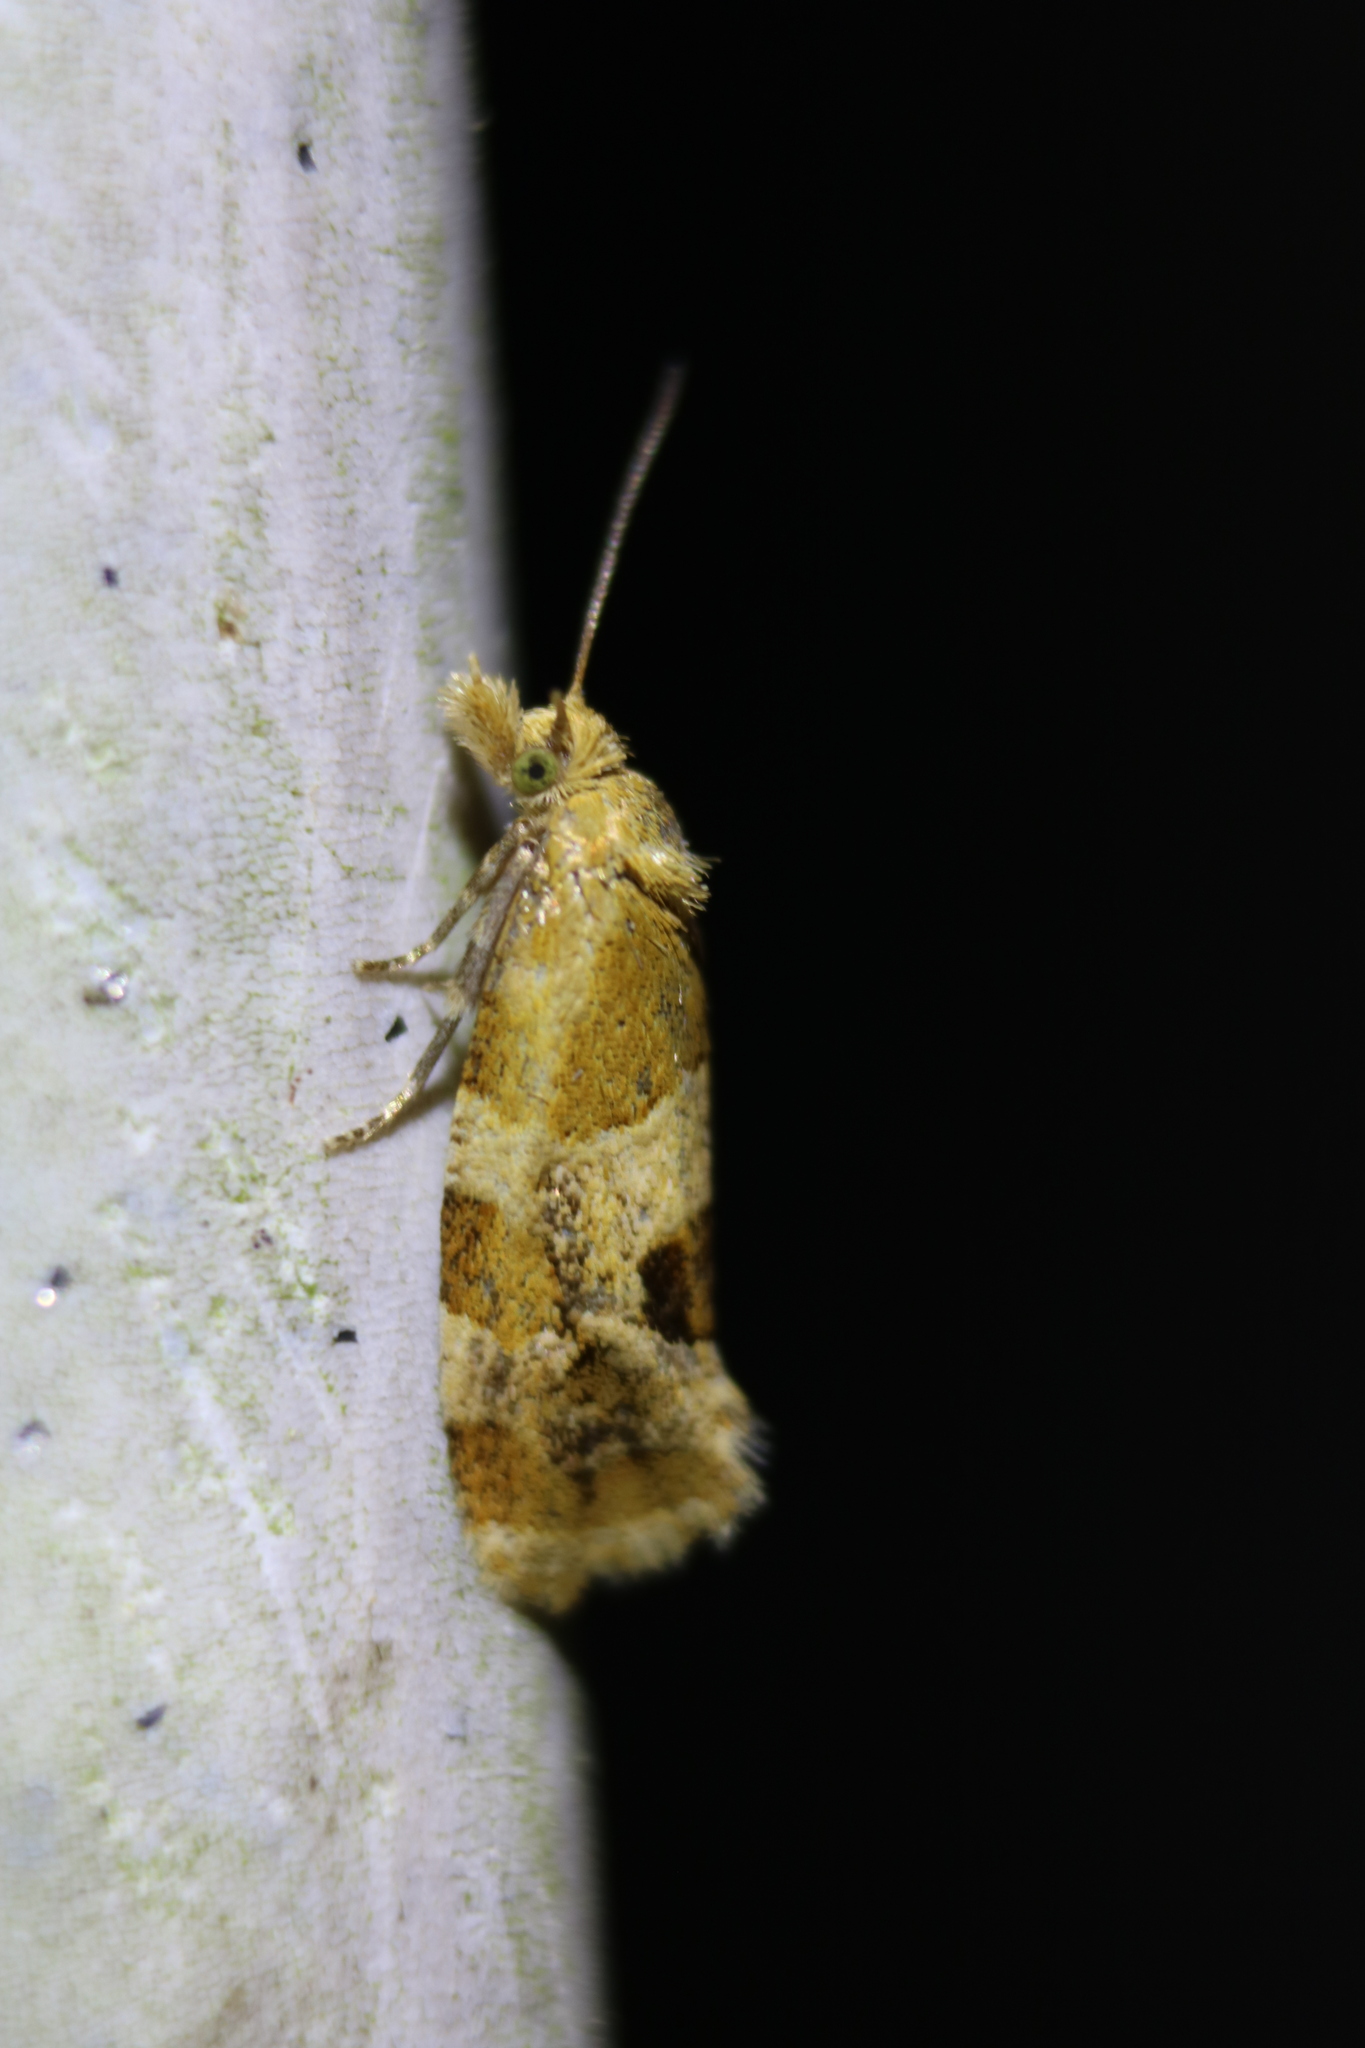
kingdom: Animalia
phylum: Arthropoda
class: Insecta
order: Lepidoptera
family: Tortricidae
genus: Aethes
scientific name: Aethes interruptofasciata
